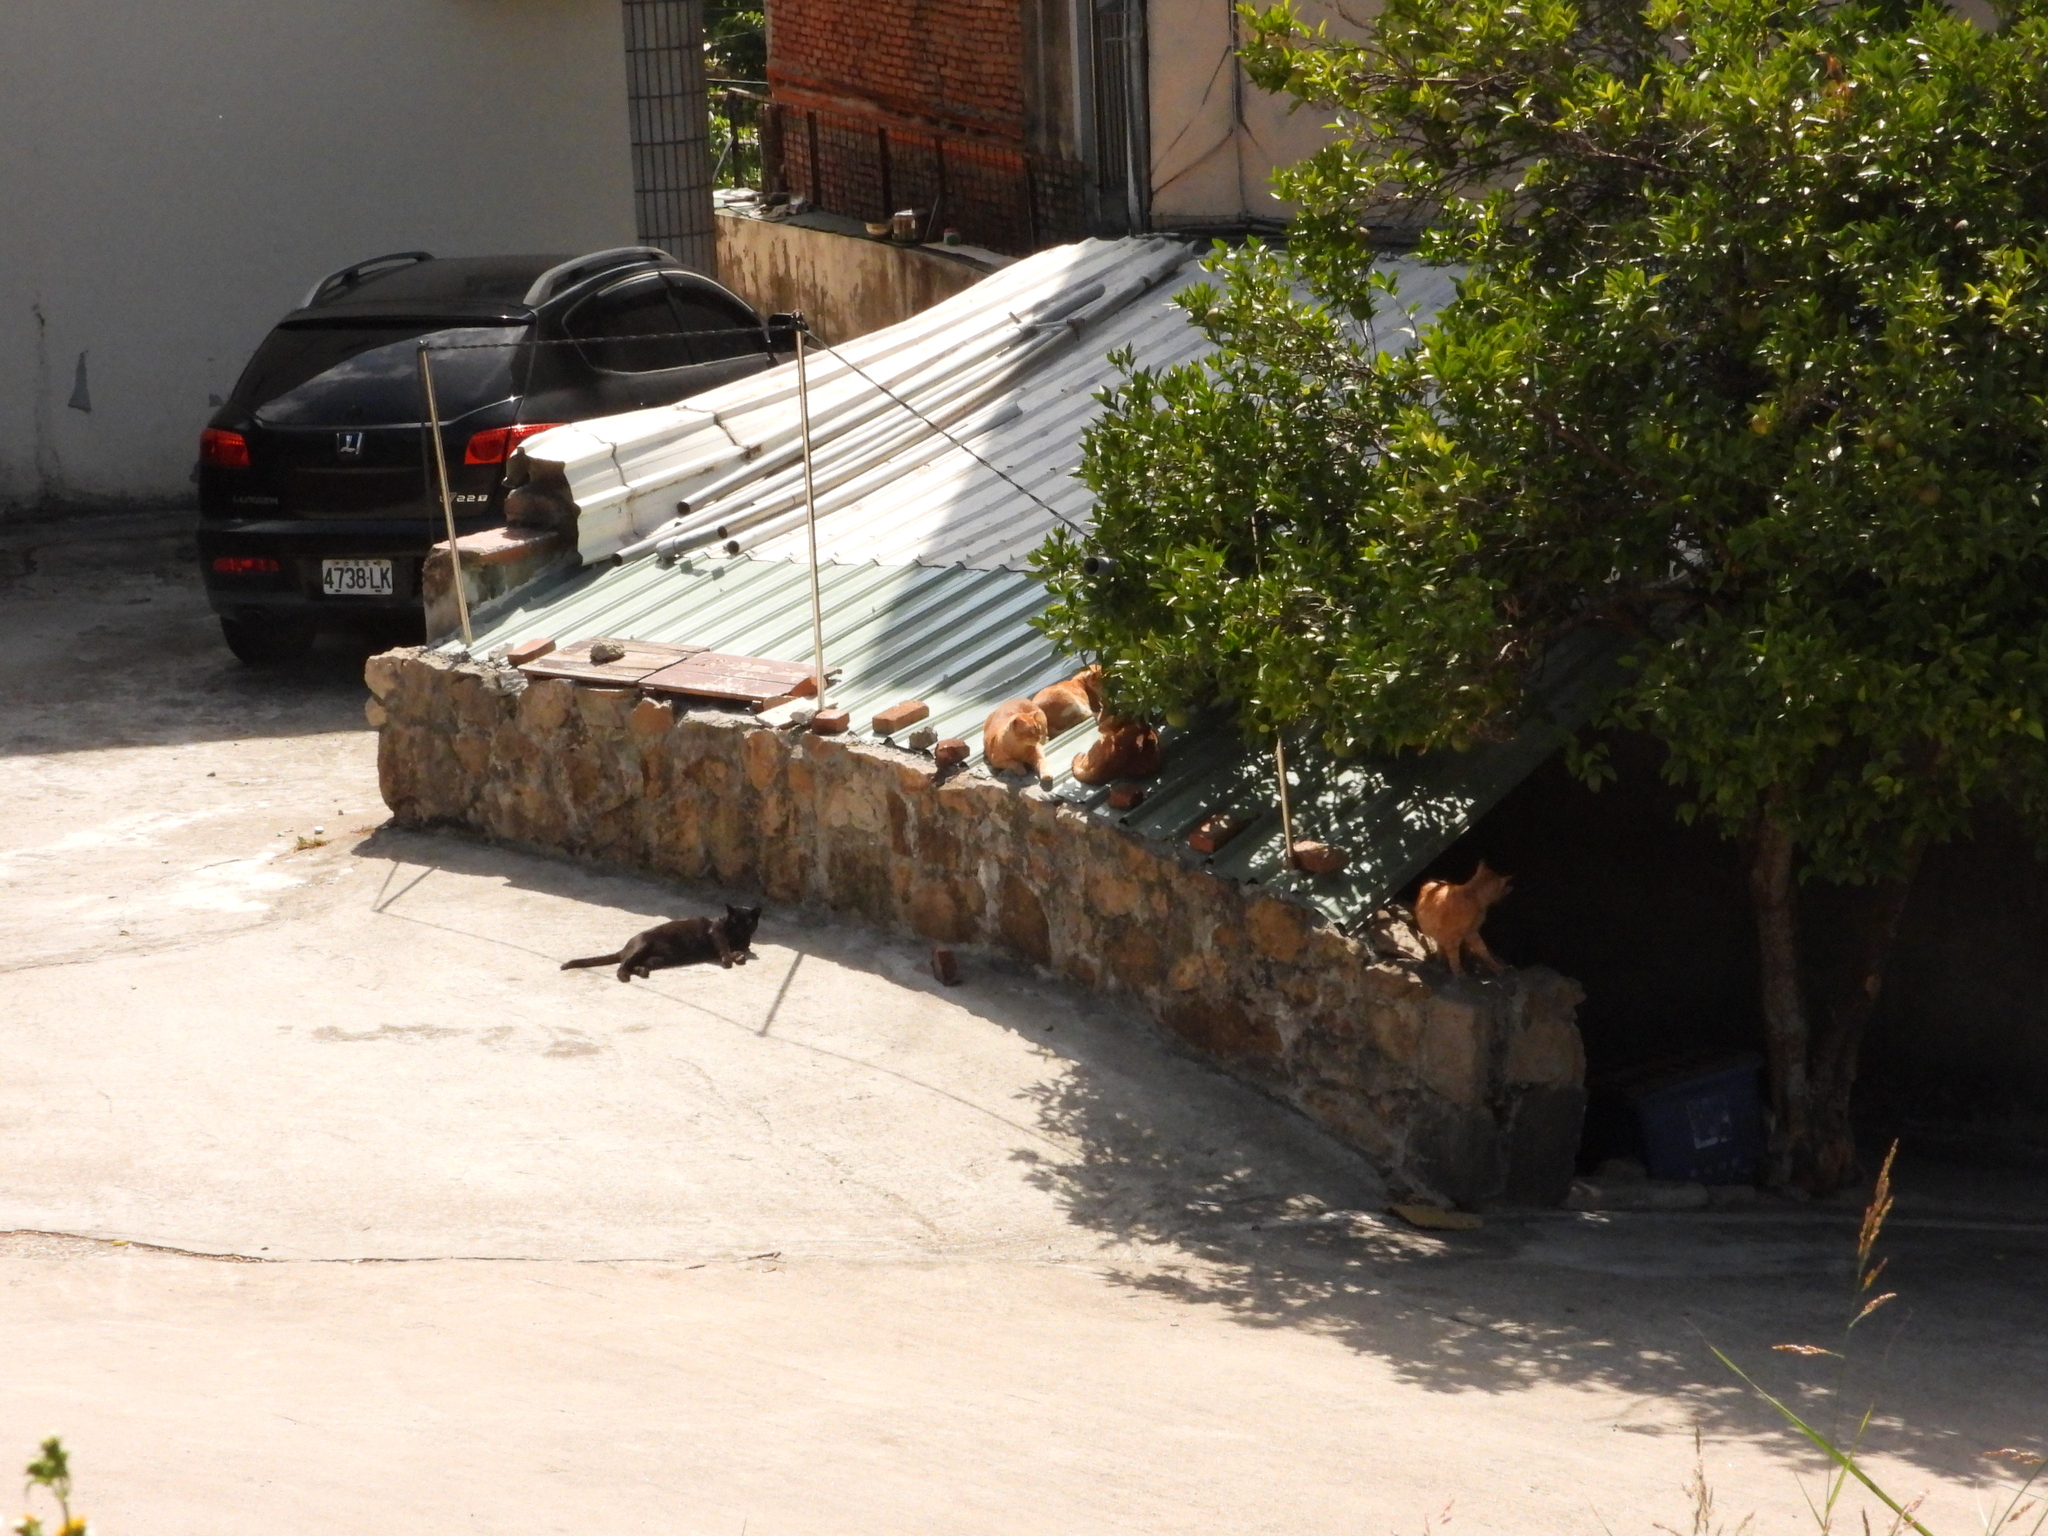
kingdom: Animalia
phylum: Chordata
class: Mammalia
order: Carnivora
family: Felidae
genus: Felis
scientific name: Felis catus
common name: Domestic cat
